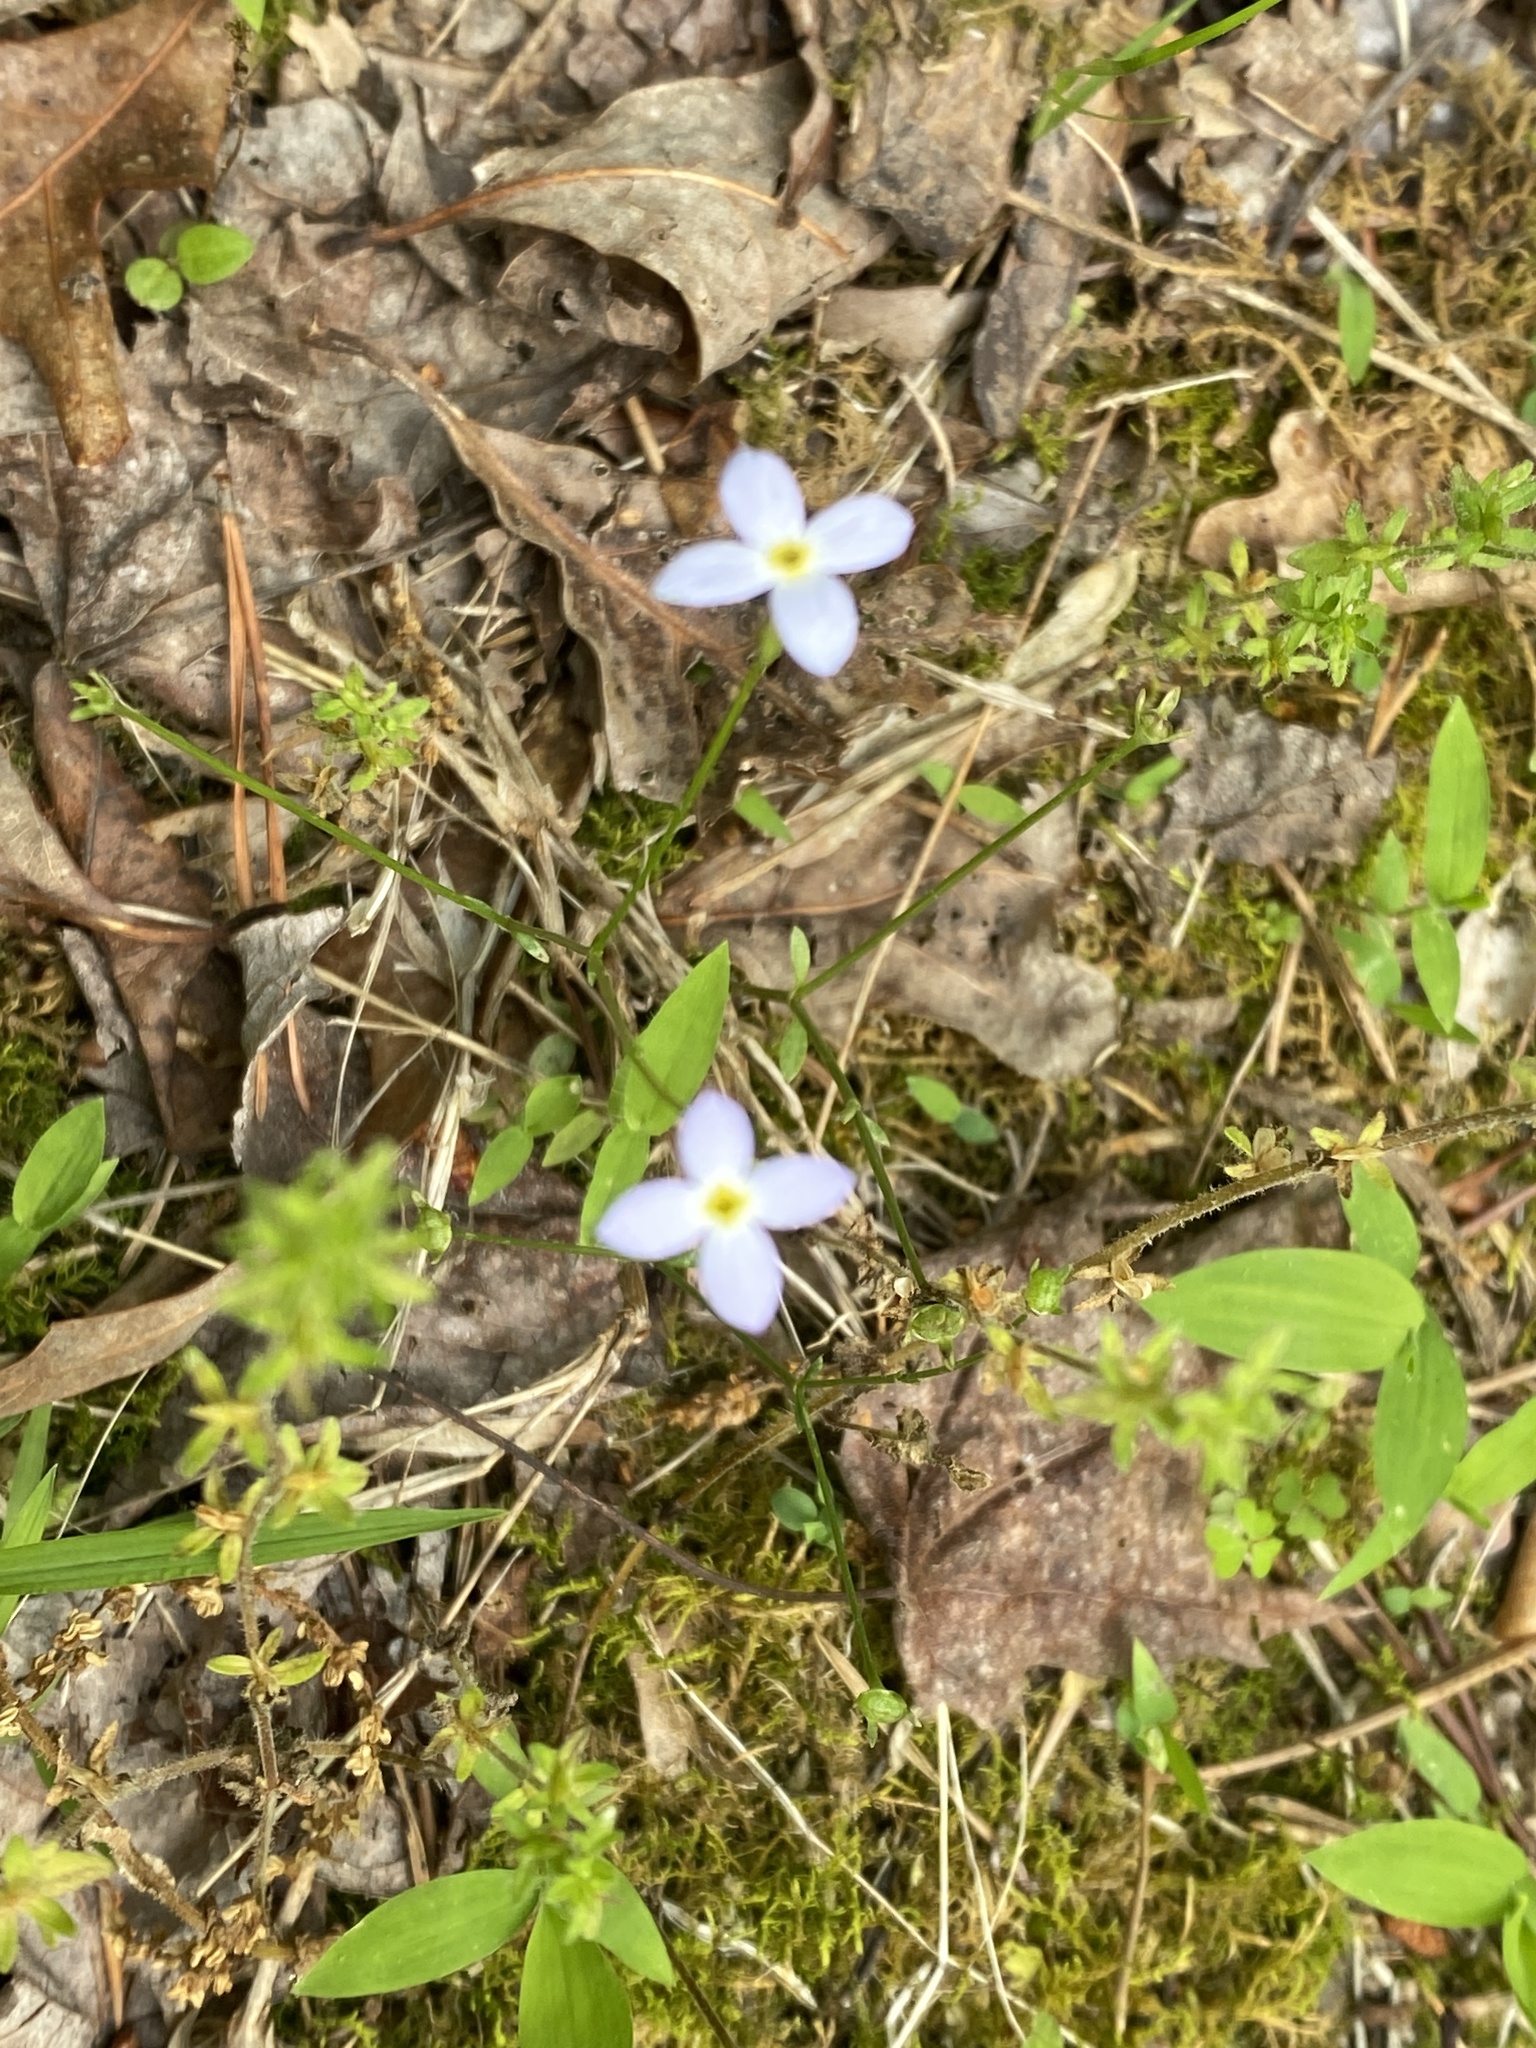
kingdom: Plantae
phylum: Tracheophyta
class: Magnoliopsida
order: Gentianales
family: Rubiaceae
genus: Houstonia
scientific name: Houstonia caerulea
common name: Bluets
